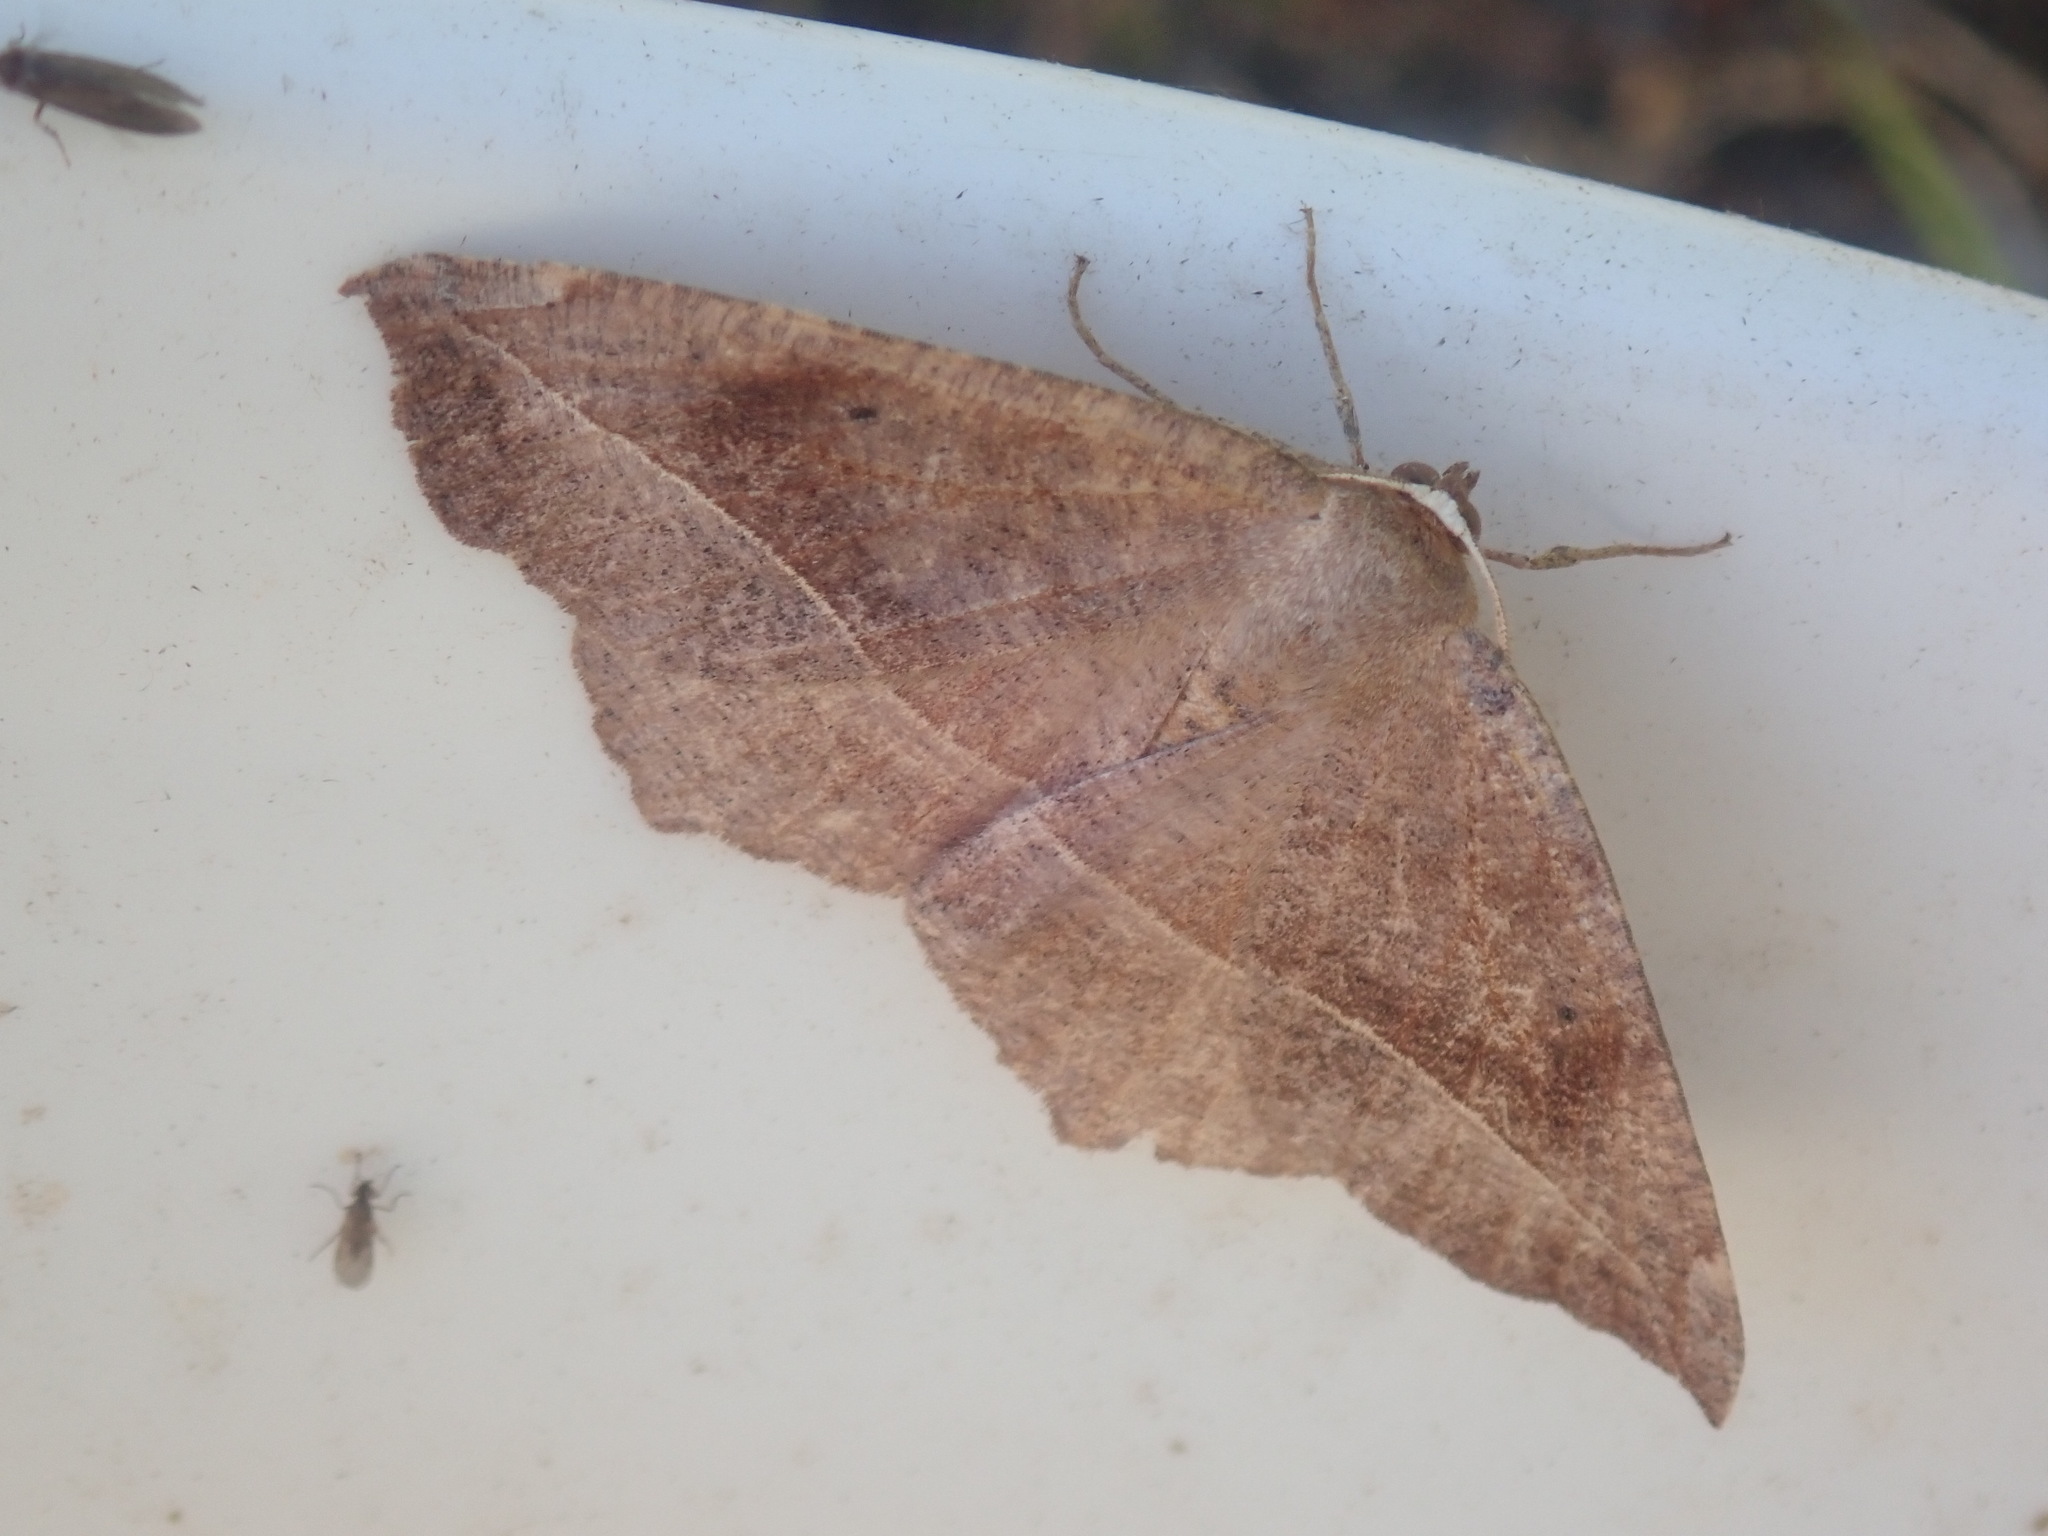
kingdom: Animalia
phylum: Arthropoda
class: Insecta
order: Lepidoptera
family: Geometridae
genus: Eutrapela
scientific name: Eutrapela clemataria
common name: Curved-toothed geometer
